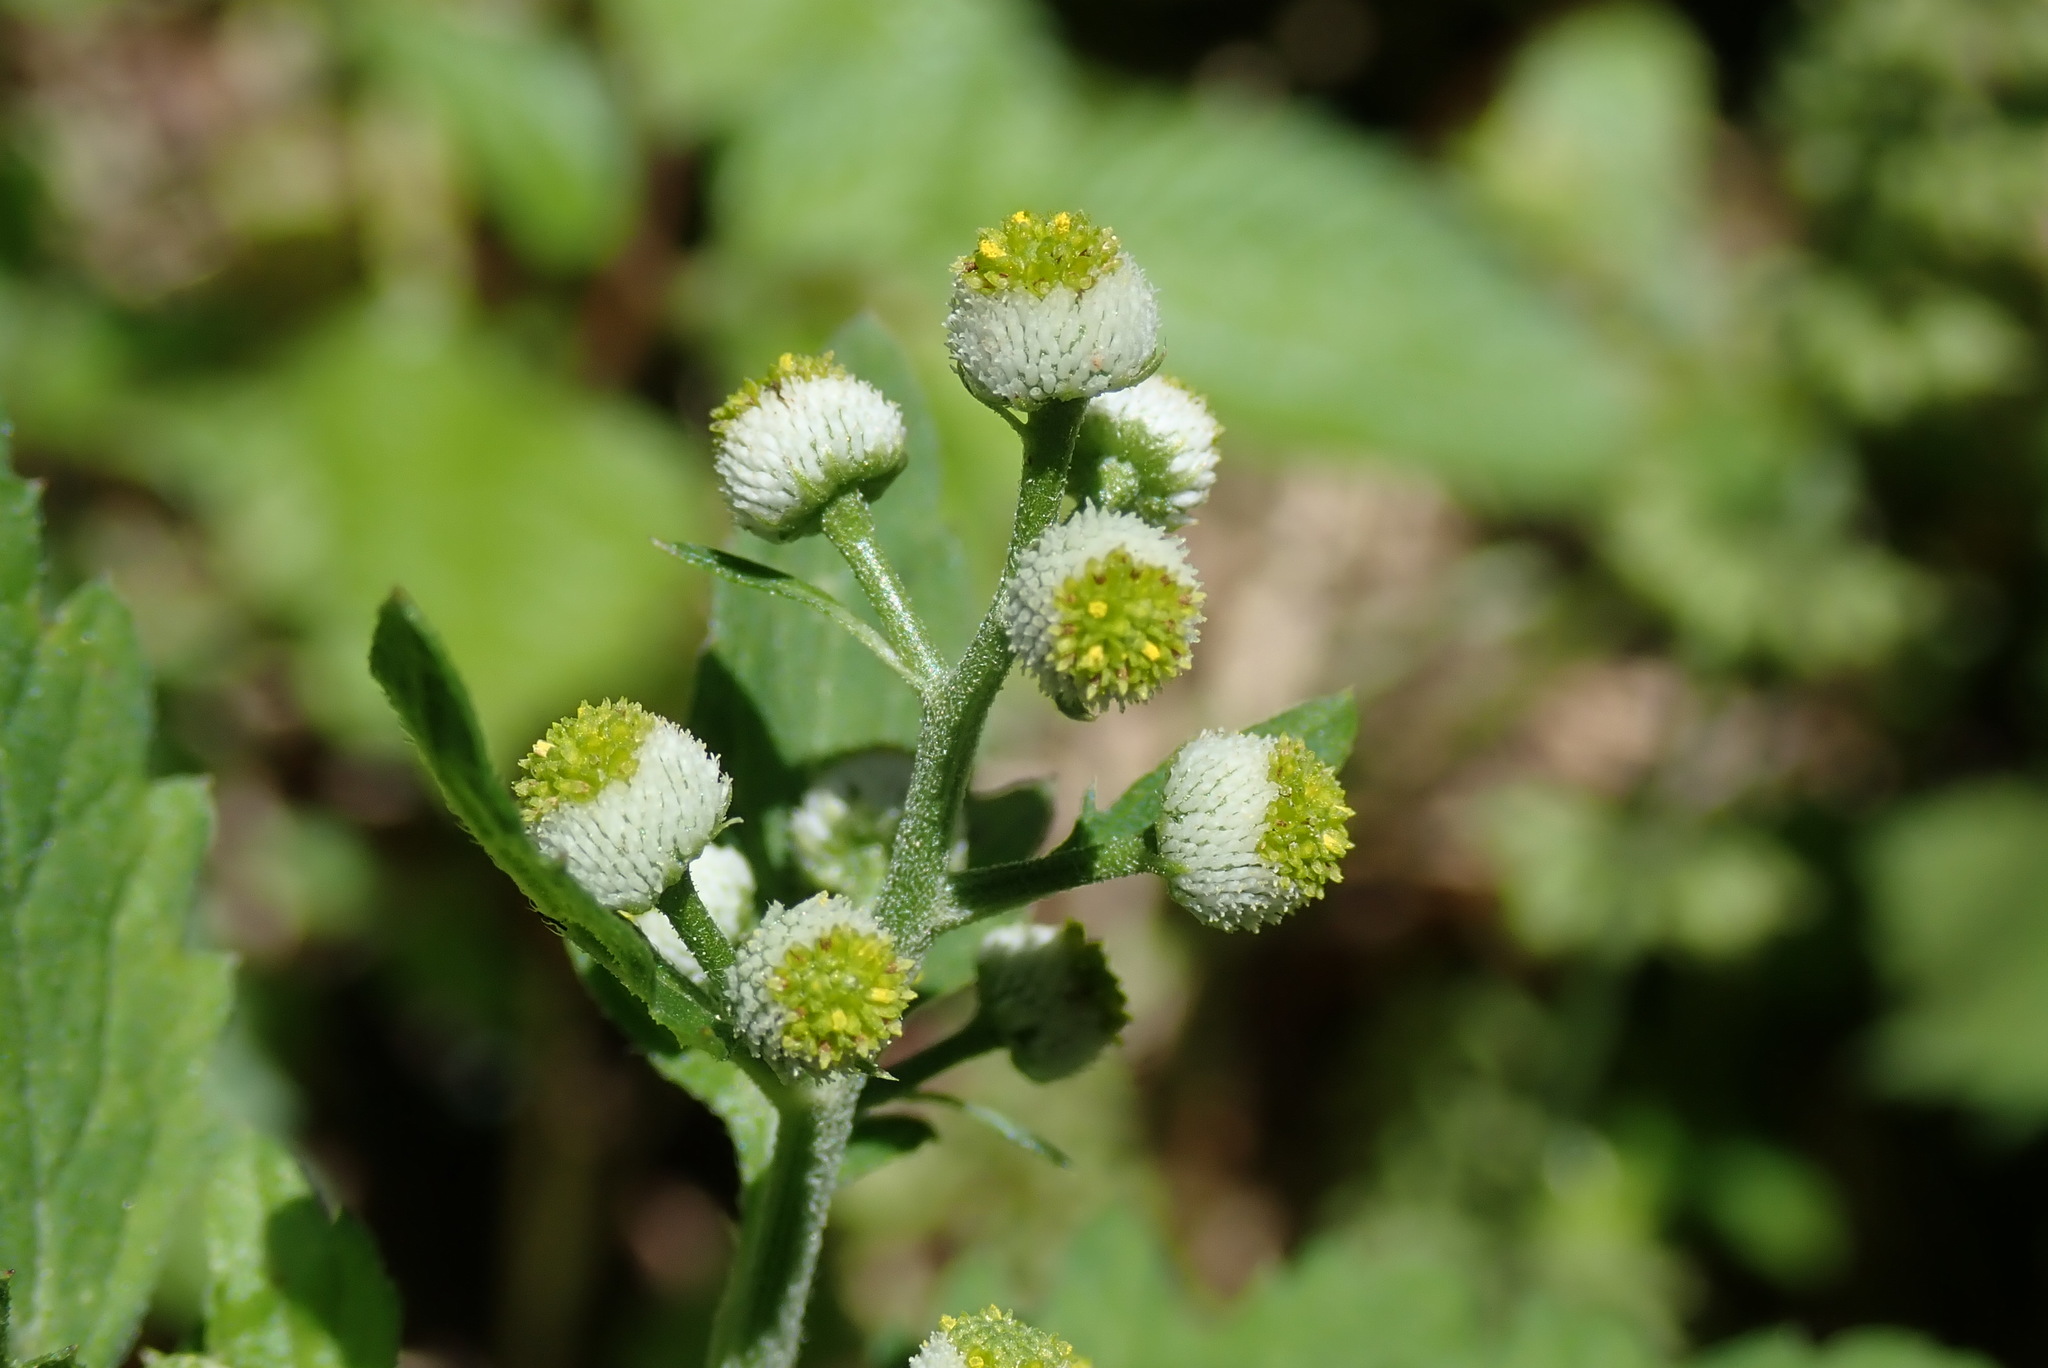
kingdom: Plantae
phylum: Tracheophyta
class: Magnoliopsida
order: Asterales
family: Asteraceae
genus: Dichrocephala
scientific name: Dichrocephala integrifolia
